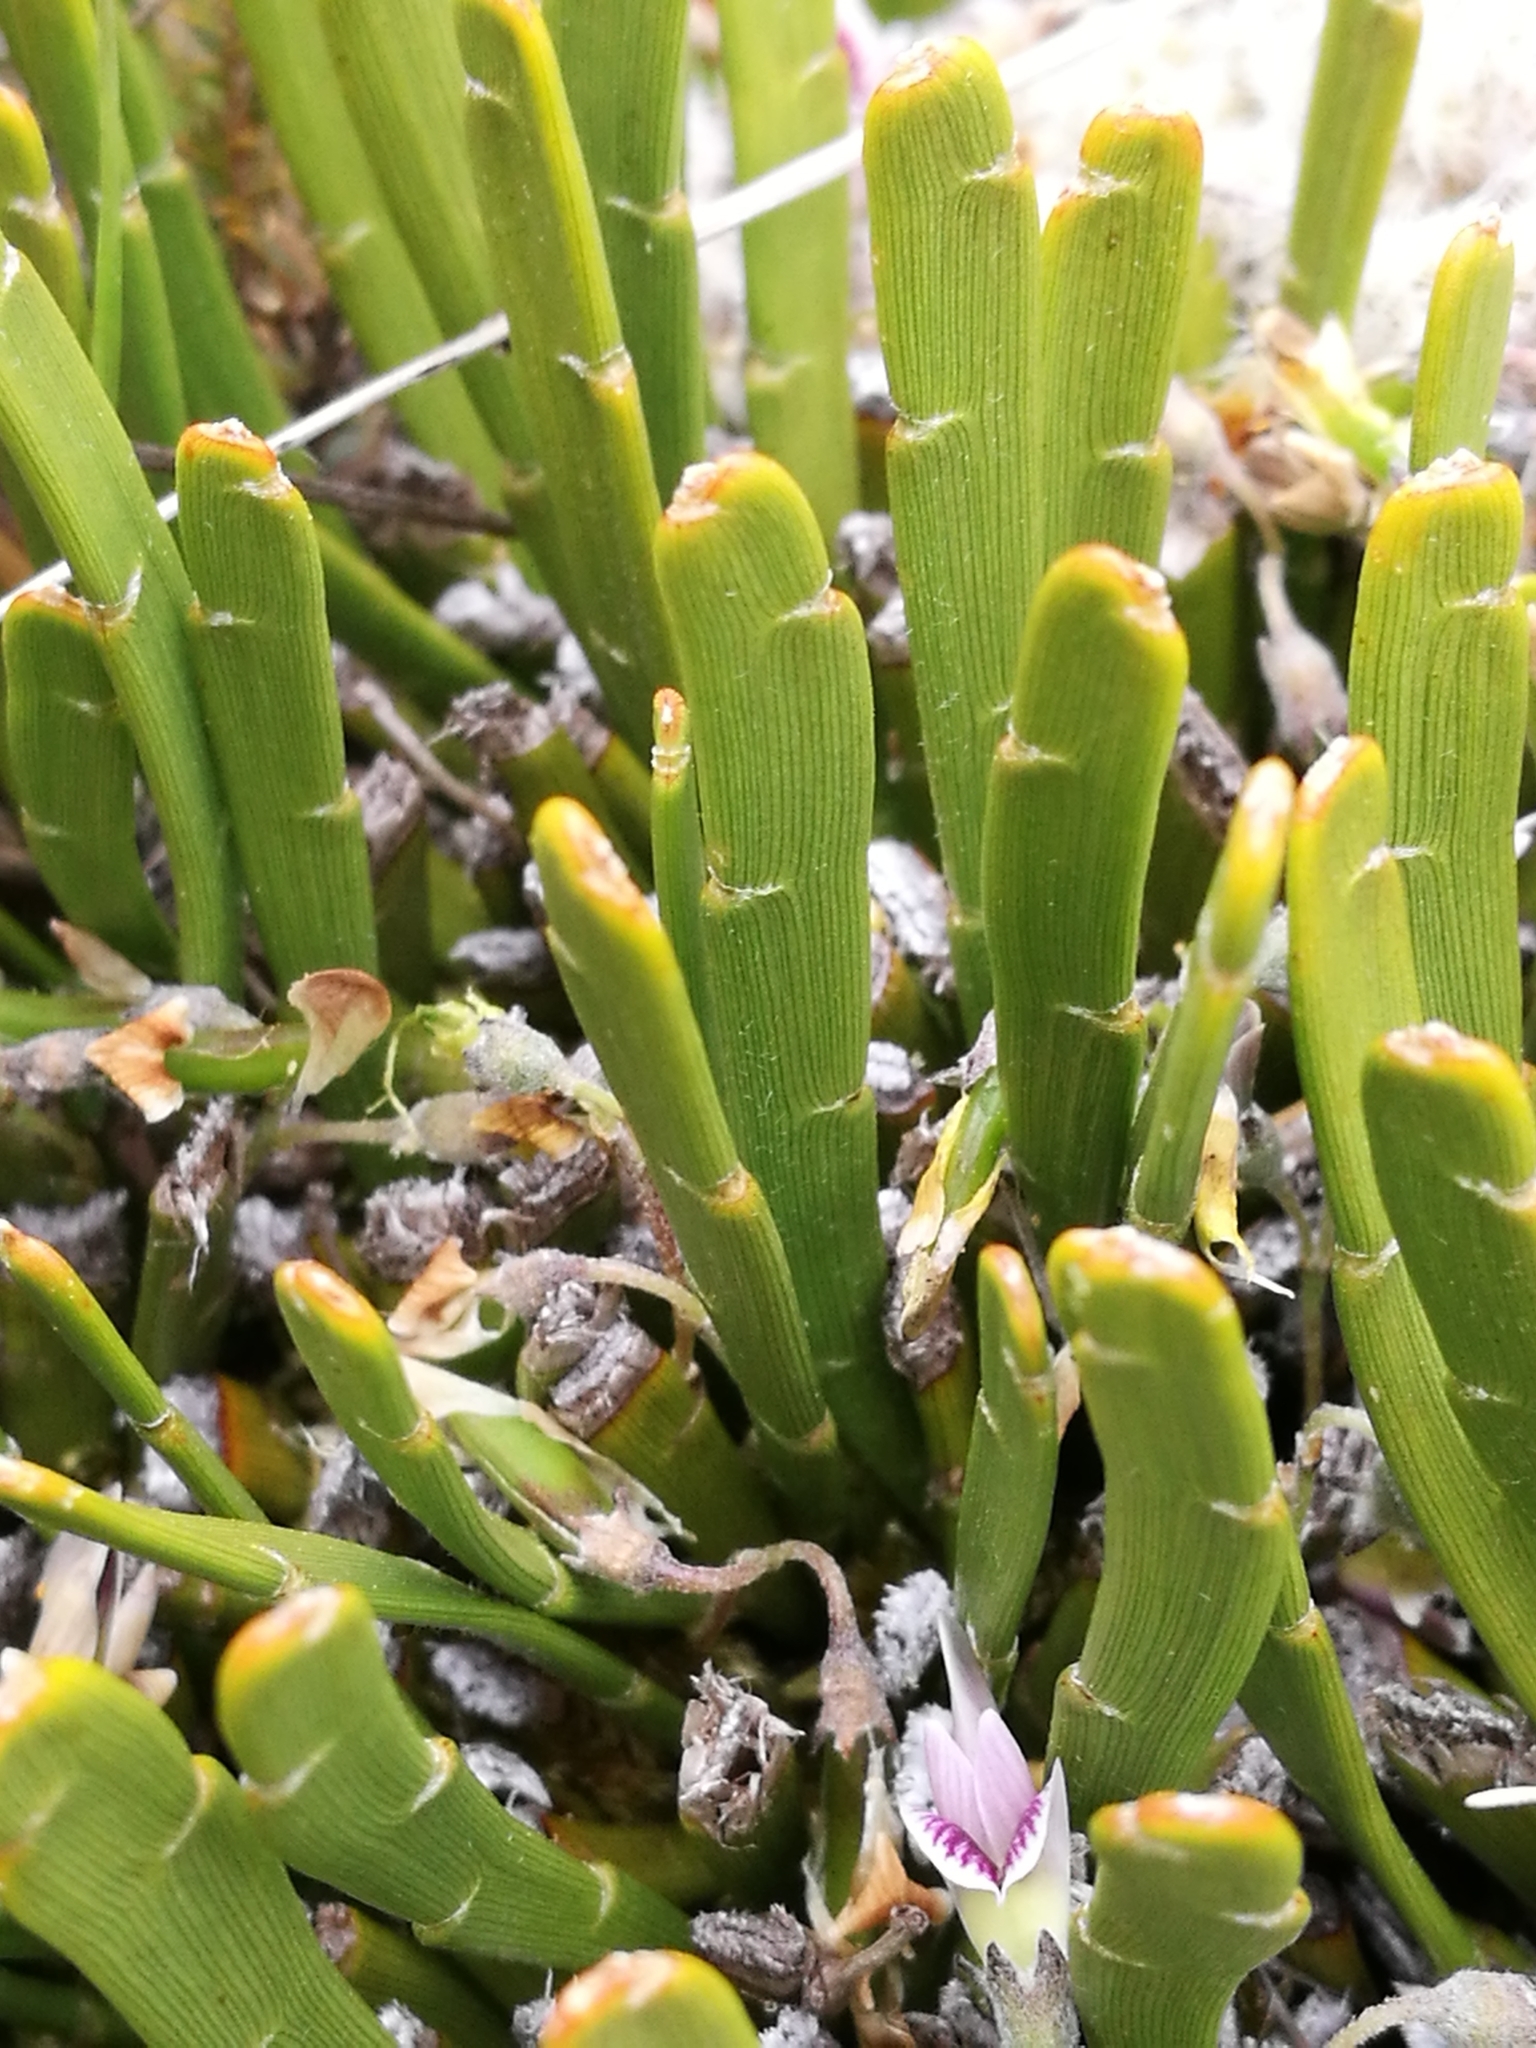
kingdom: Plantae
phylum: Tracheophyta
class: Magnoliopsida
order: Fabales
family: Fabaceae
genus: Carmichaelia
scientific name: Carmichaelia monroi
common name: Stout dwarf broom
